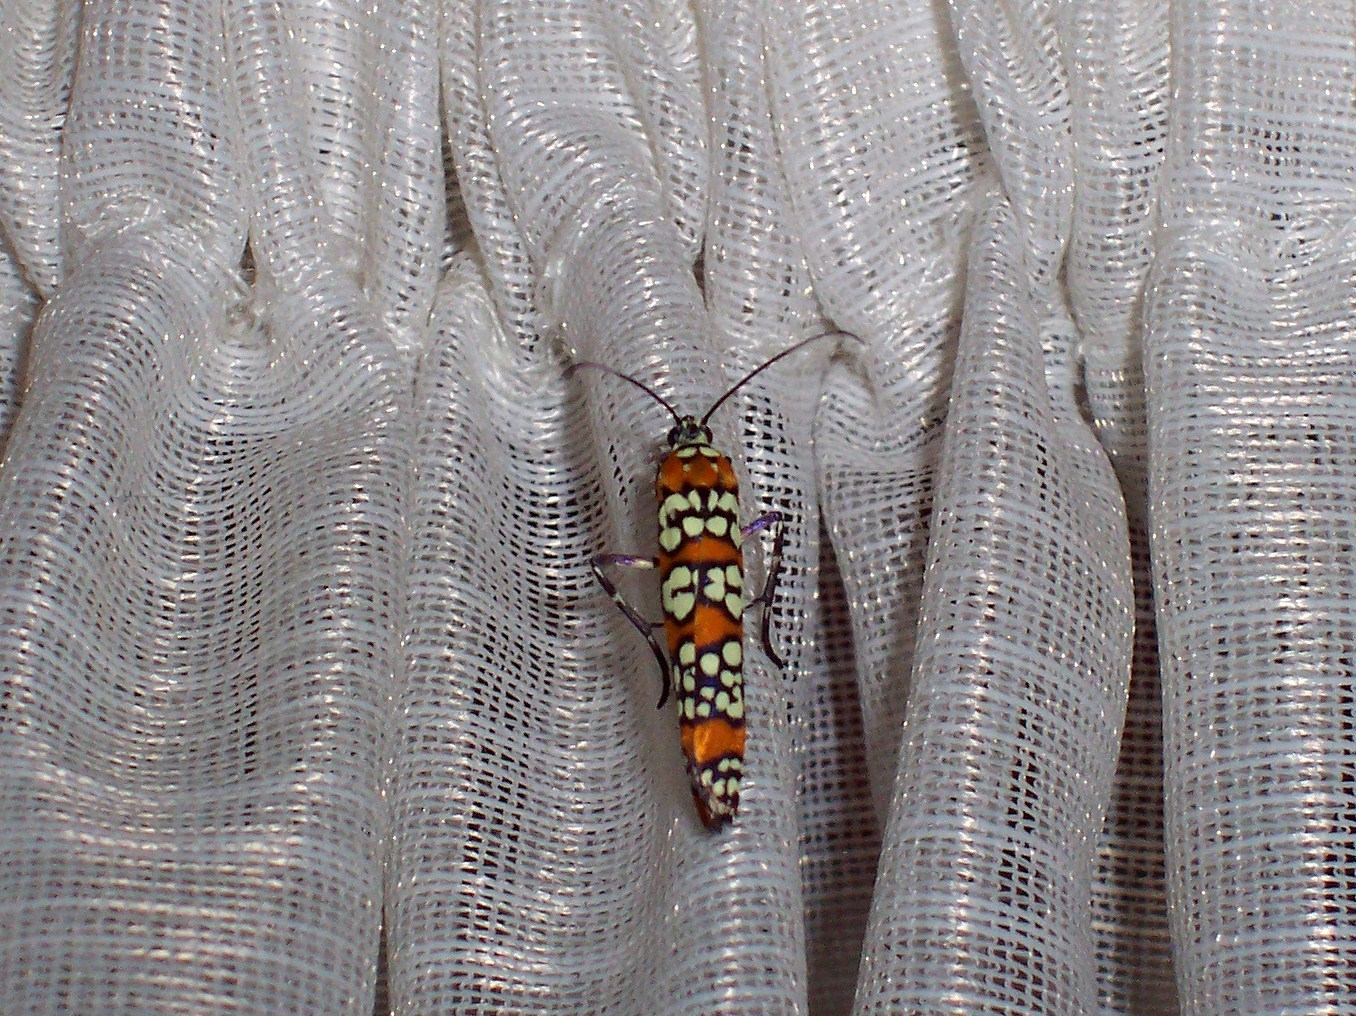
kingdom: Animalia
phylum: Arthropoda
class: Insecta
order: Lepidoptera
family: Attevidae
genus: Atteva
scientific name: Atteva punctella
